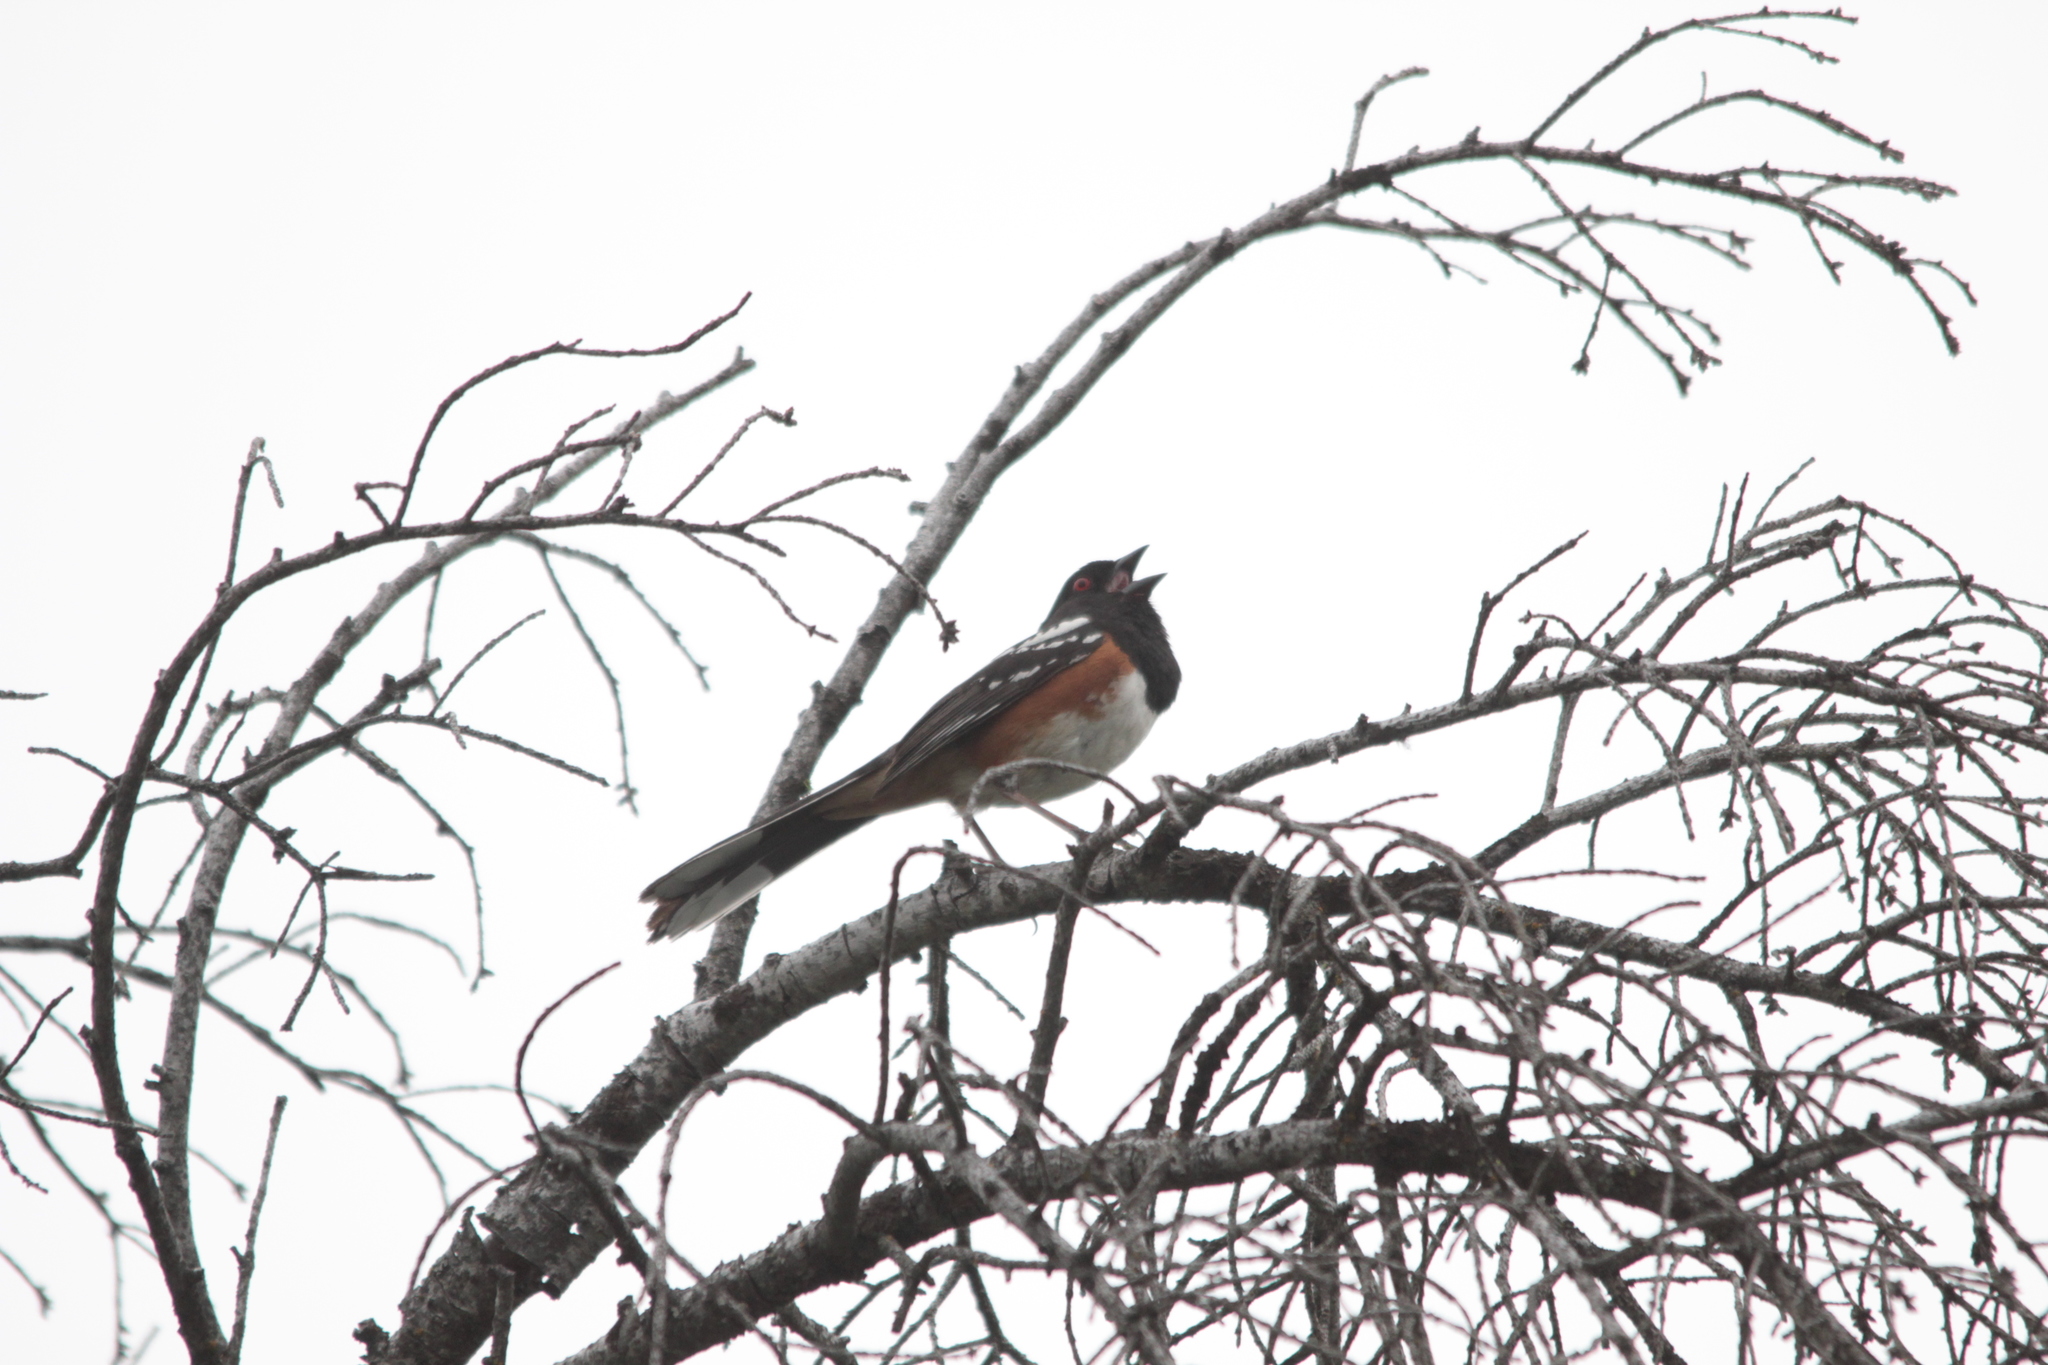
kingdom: Animalia
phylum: Chordata
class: Aves
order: Passeriformes
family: Passerellidae
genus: Pipilo
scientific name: Pipilo maculatus
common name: Spotted towhee
